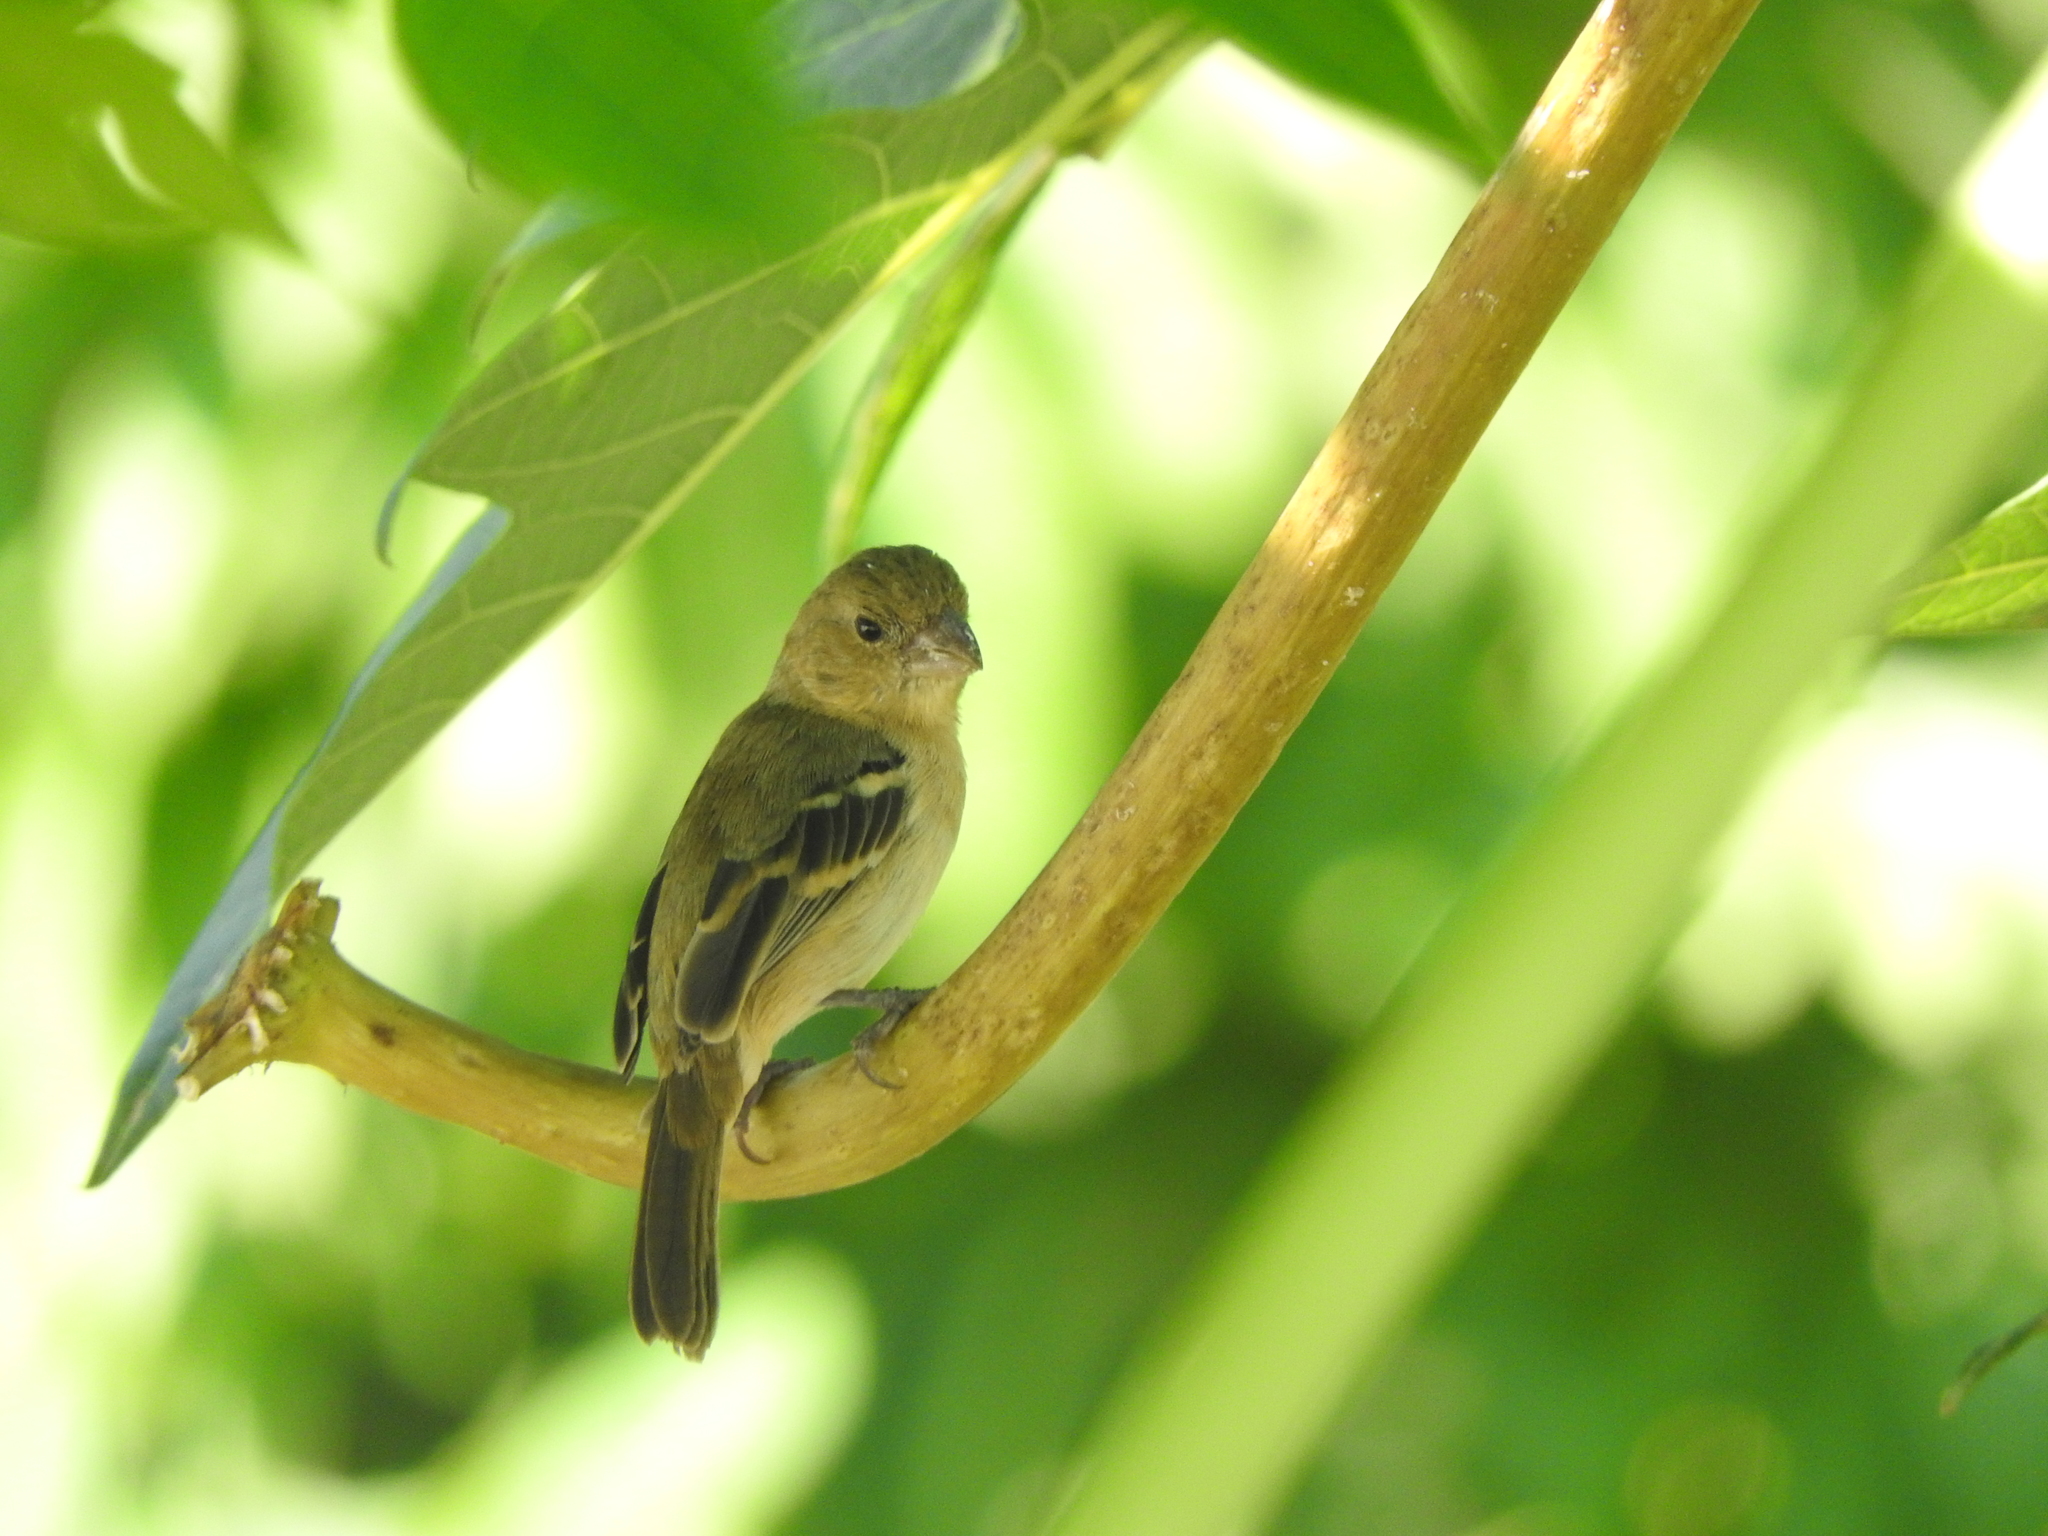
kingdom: Animalia
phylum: Chordata
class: Aves
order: Passeriformes
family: Thraupidae
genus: Sporophila
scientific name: Sporophila morelleti
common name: Morelet's seedeater
